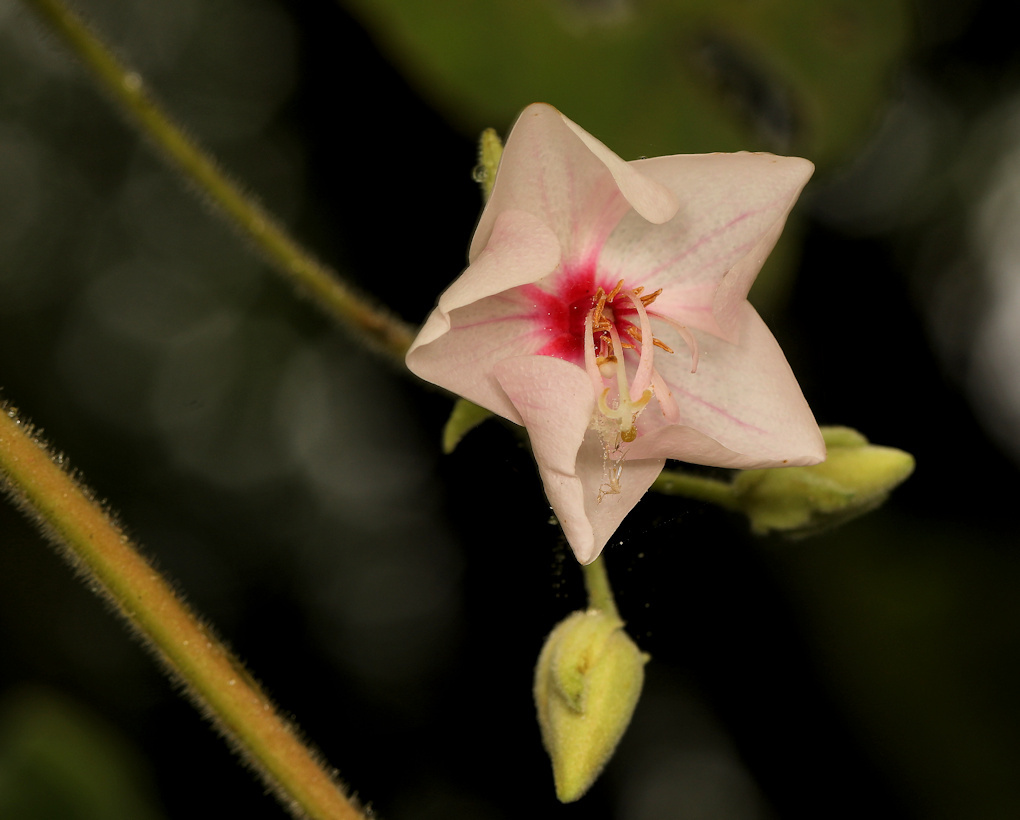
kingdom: Plantae
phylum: Tracheophyta
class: Magnoliopsida
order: Malvales
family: Malvaceae
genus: Dombeya
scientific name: Dombeya burgessiae
